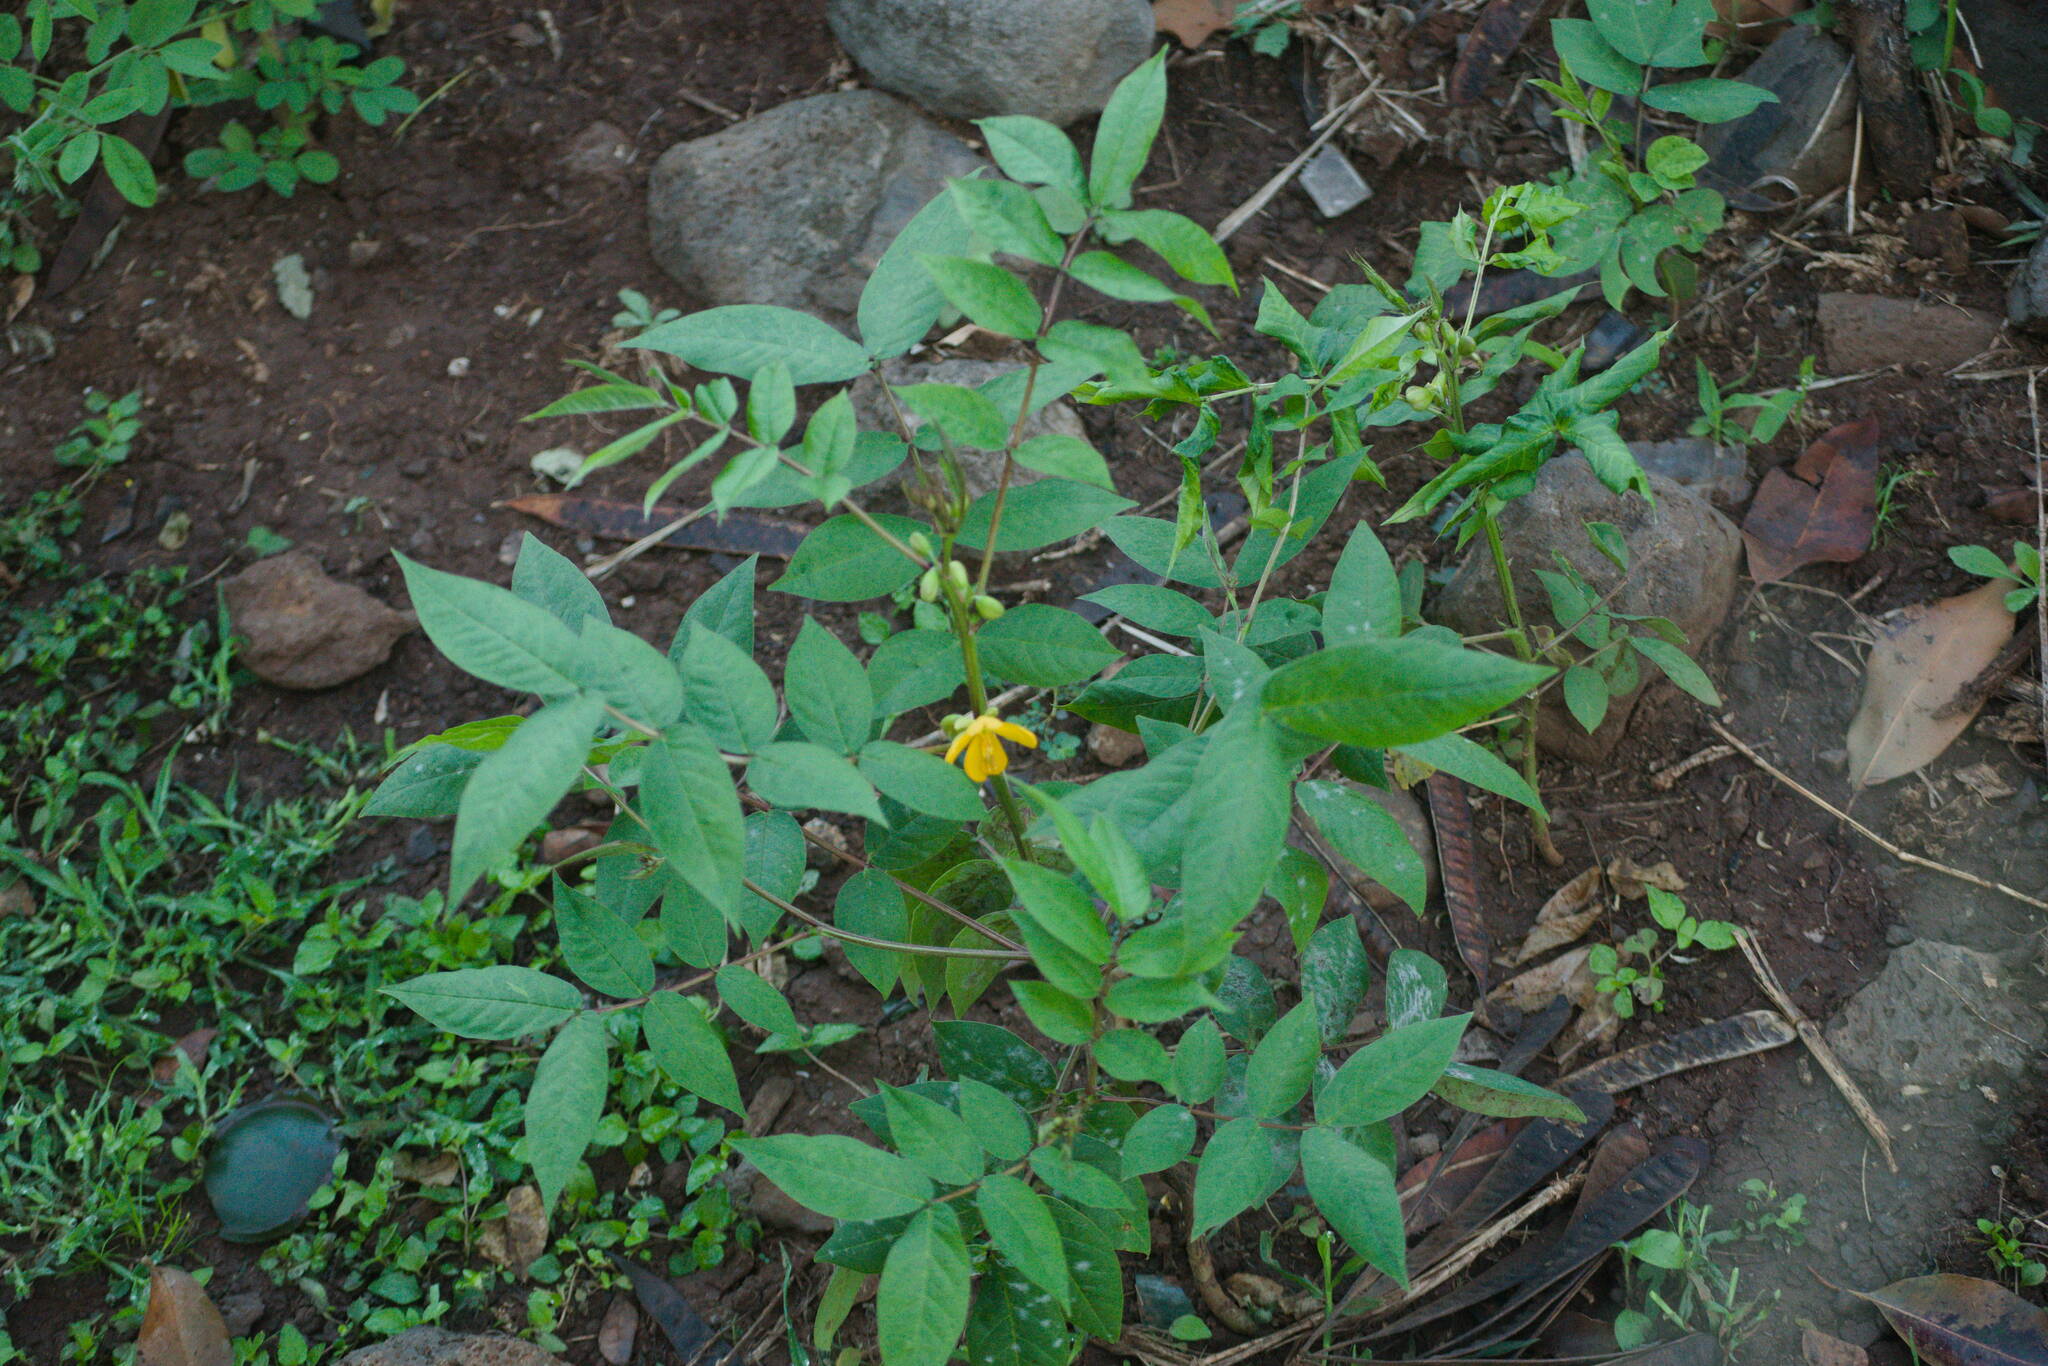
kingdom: Plantae
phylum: Tracheophyta
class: Magnoliopsida
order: Fabales
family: Fabaceae
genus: Senna
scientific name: Senna occidentalis
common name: Septicweed
